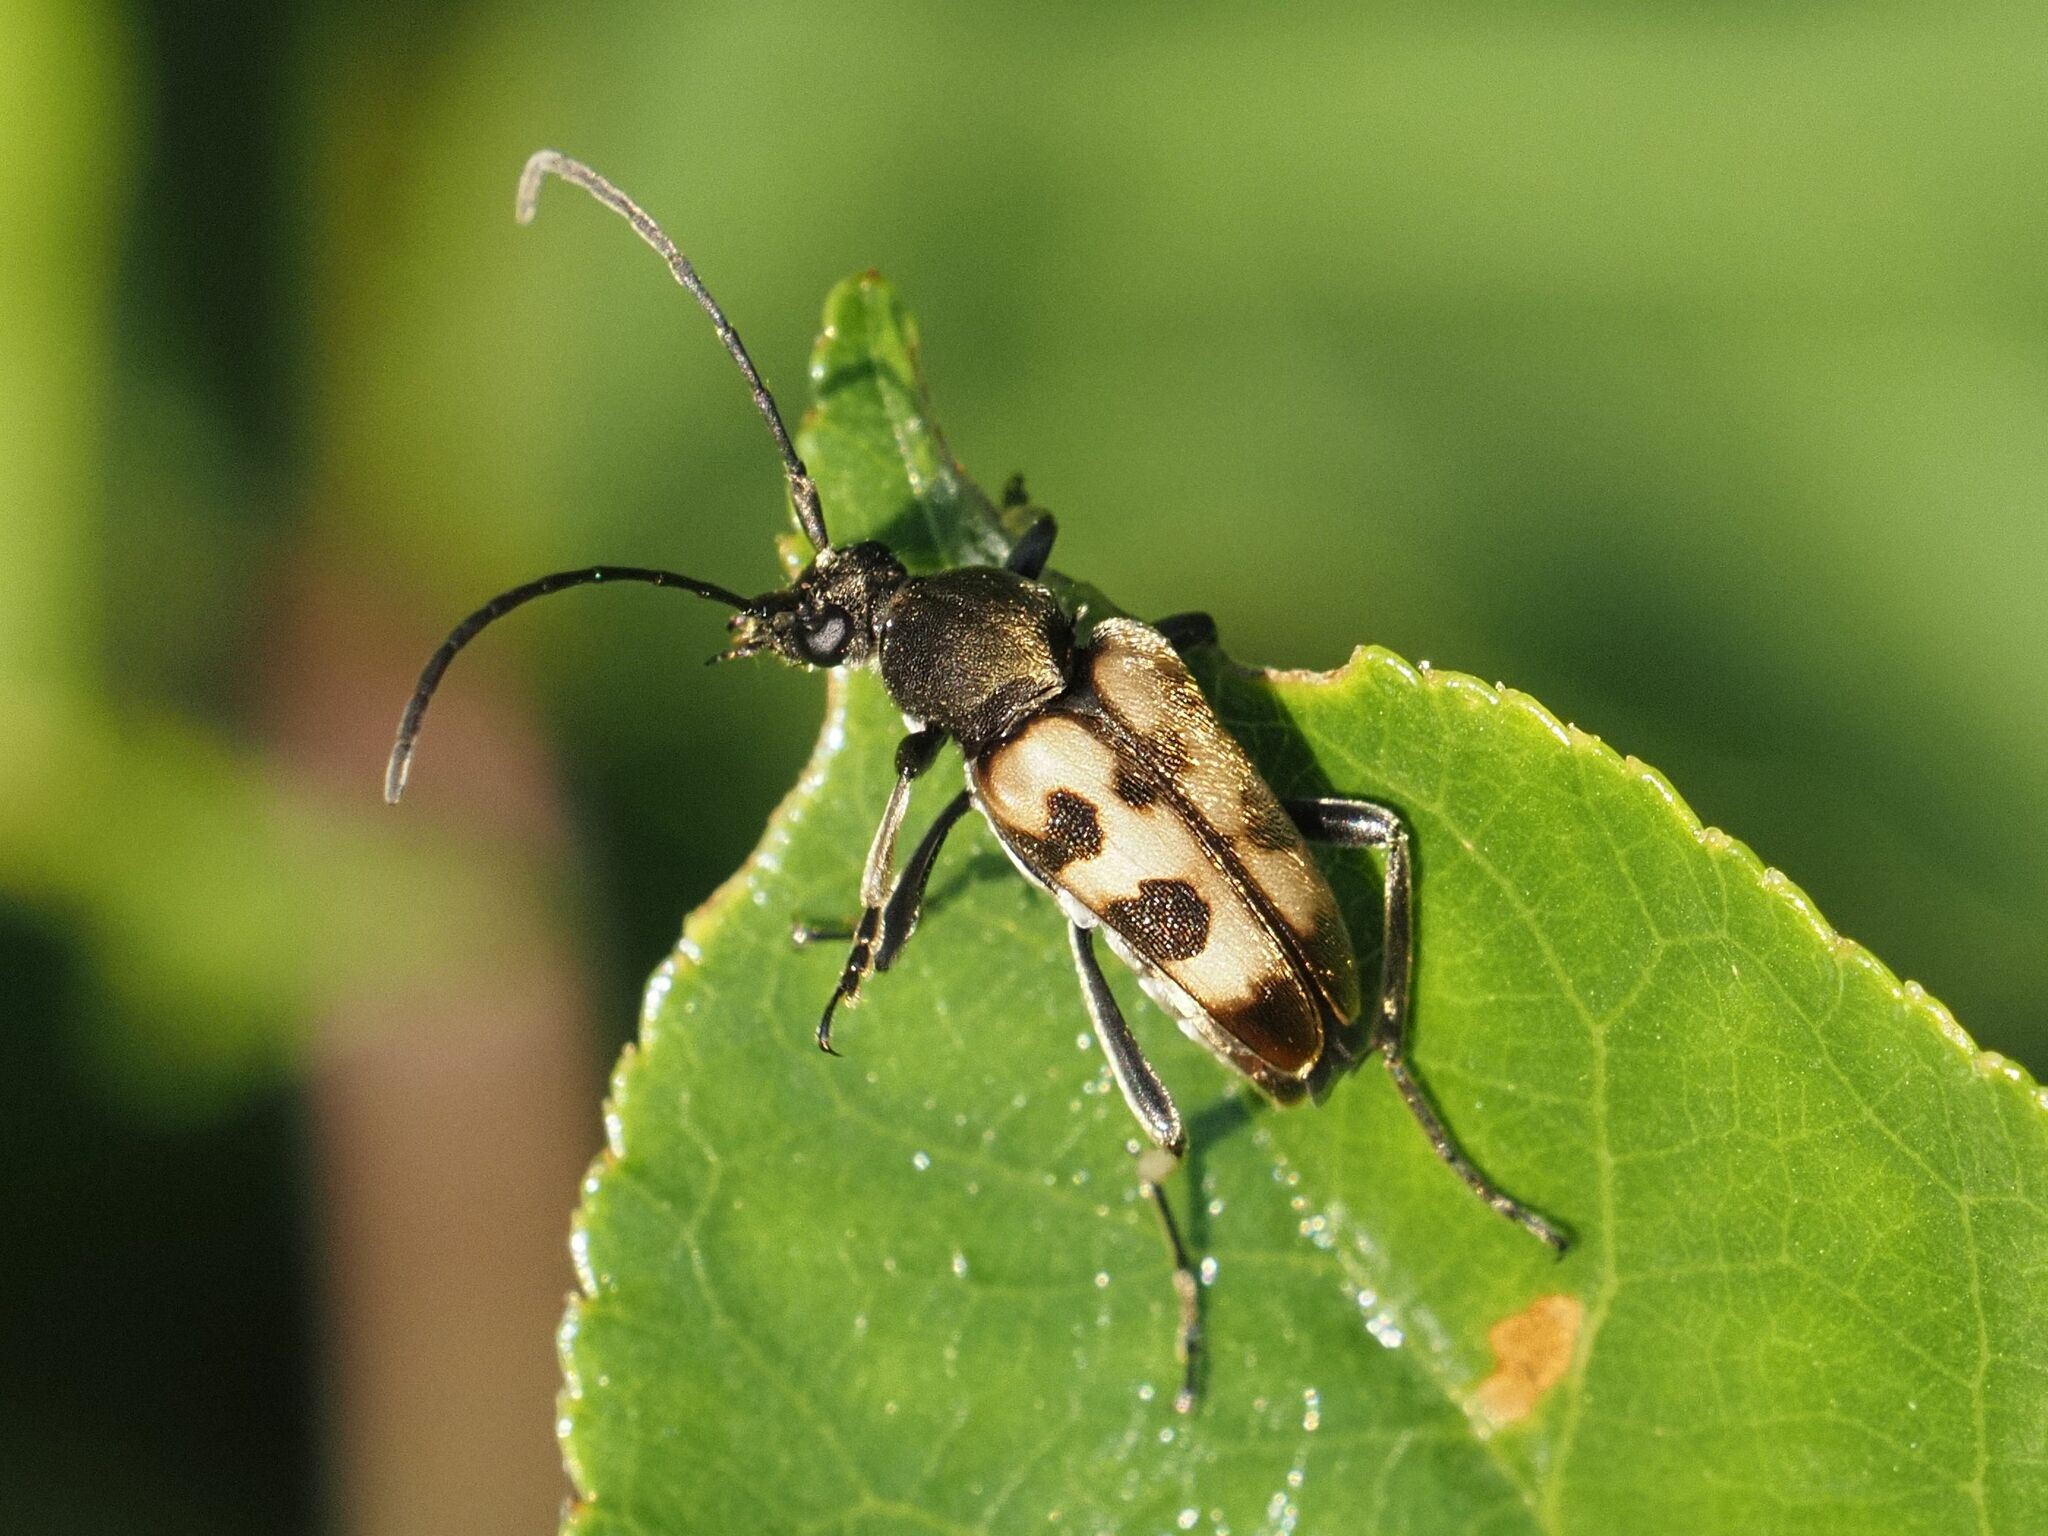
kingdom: Animalia
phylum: Arthropoda
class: Insecta
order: Coleoptera
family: Cerambycidae
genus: Pachytodes
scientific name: Pachytodes
